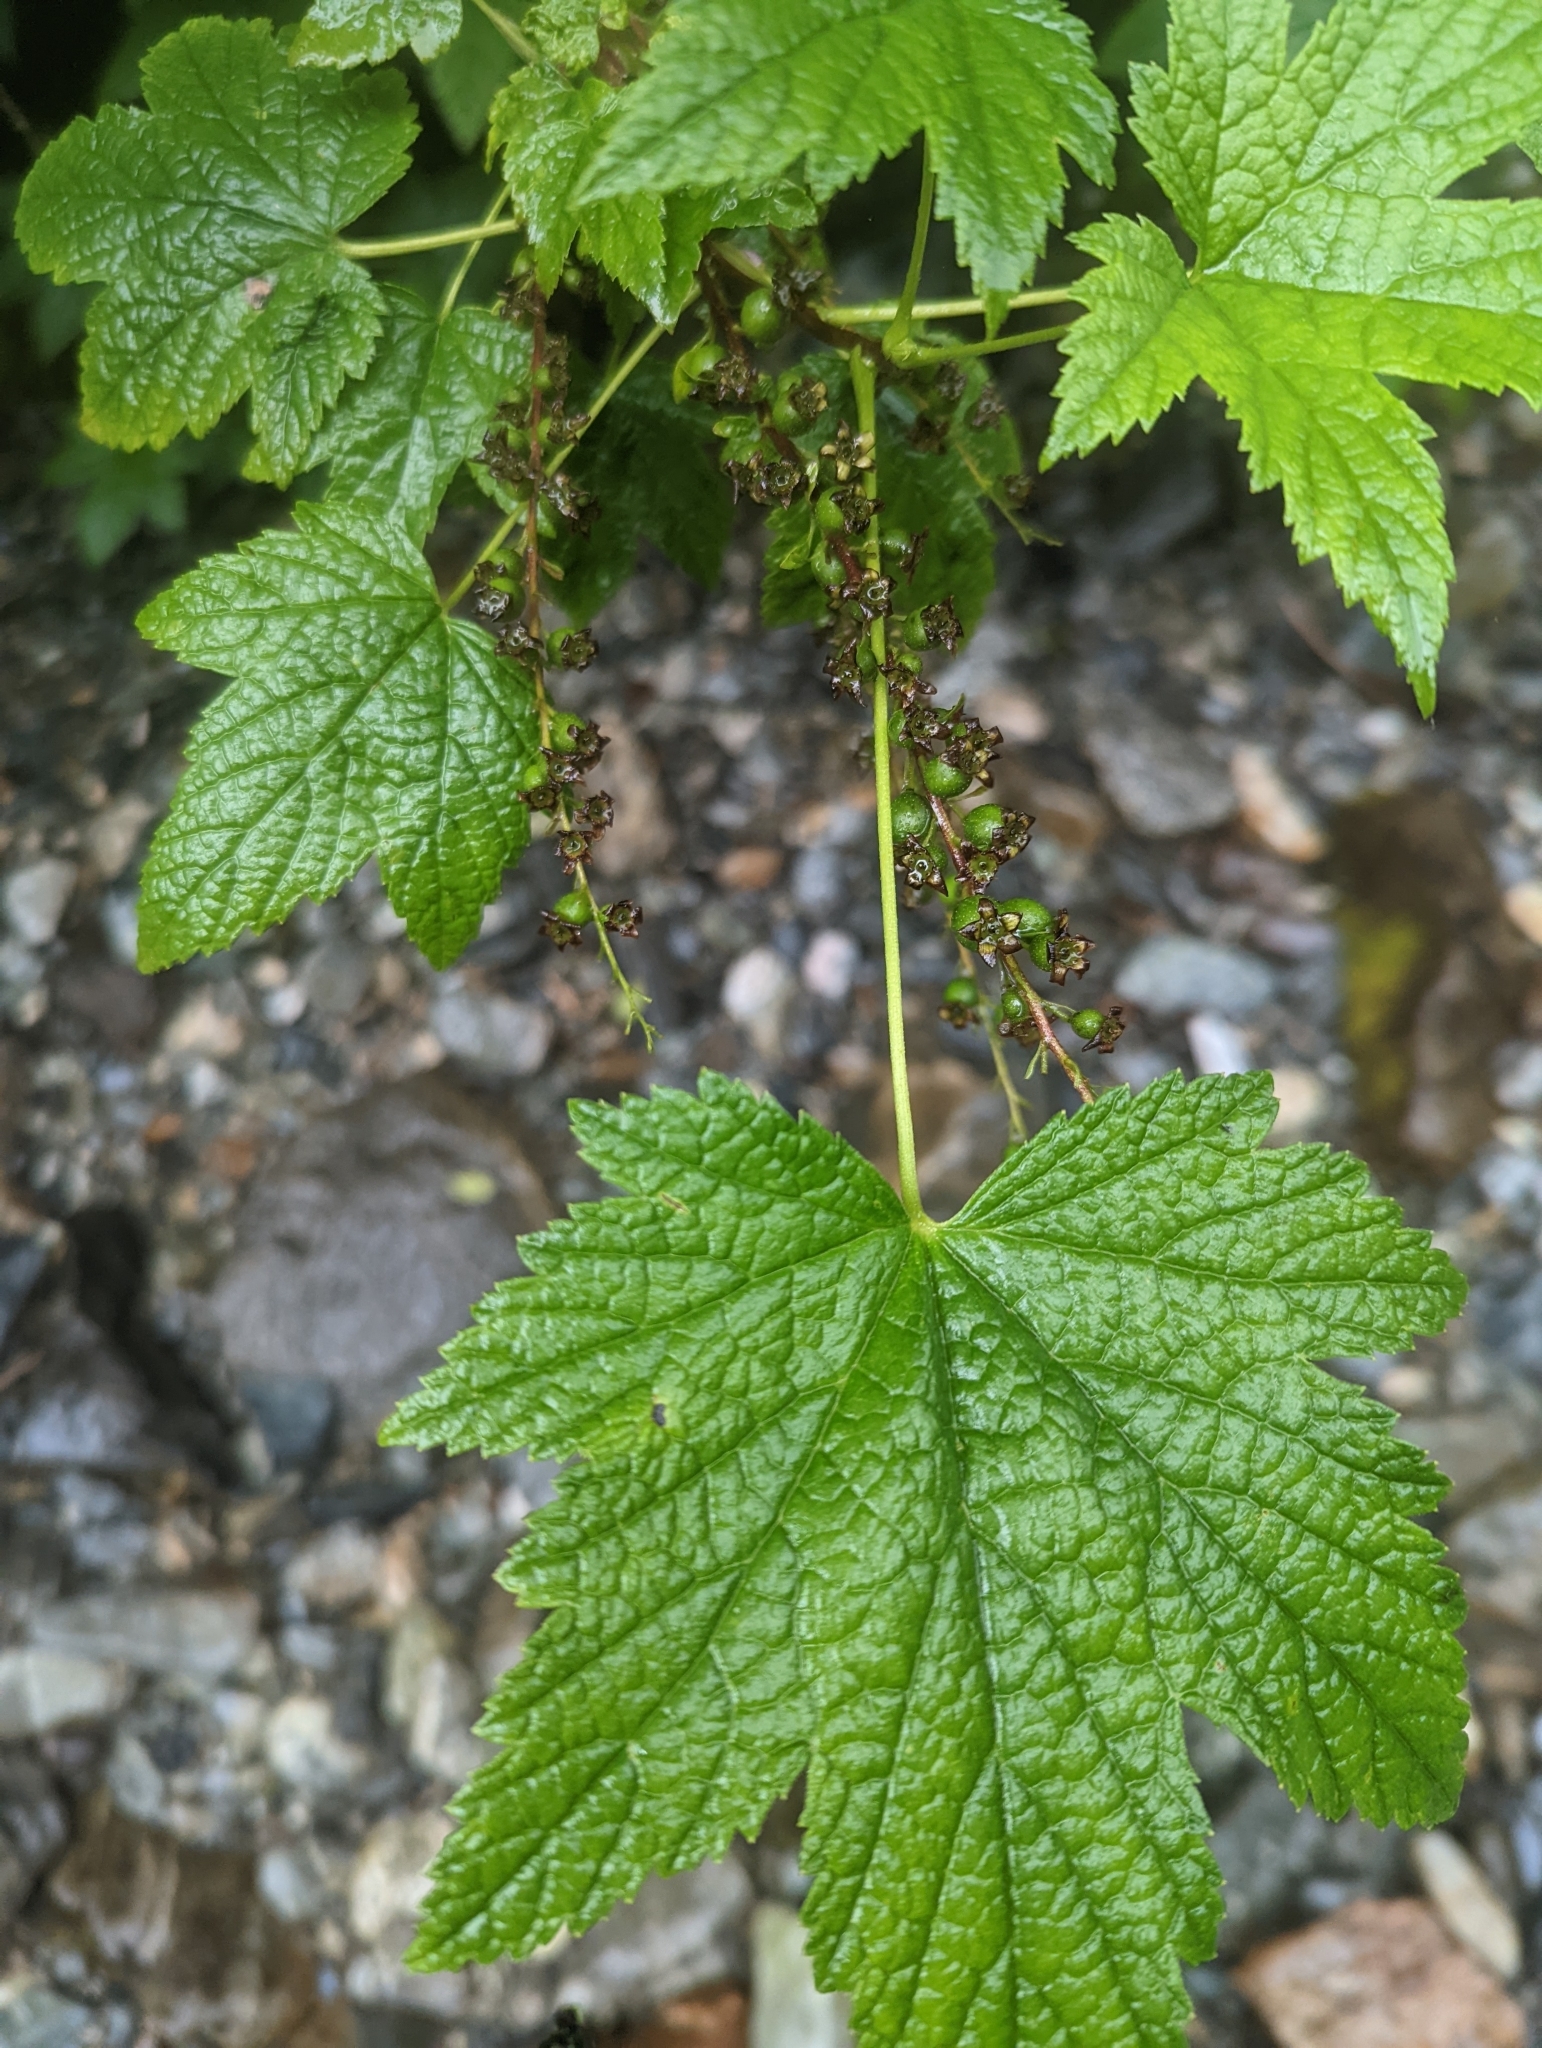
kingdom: Plantae
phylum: Tracheophyta
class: Magnoliopsida
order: Saxifragales
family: Grossulariaceae
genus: Ribes
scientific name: Ribes bracteosum
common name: California black currant
